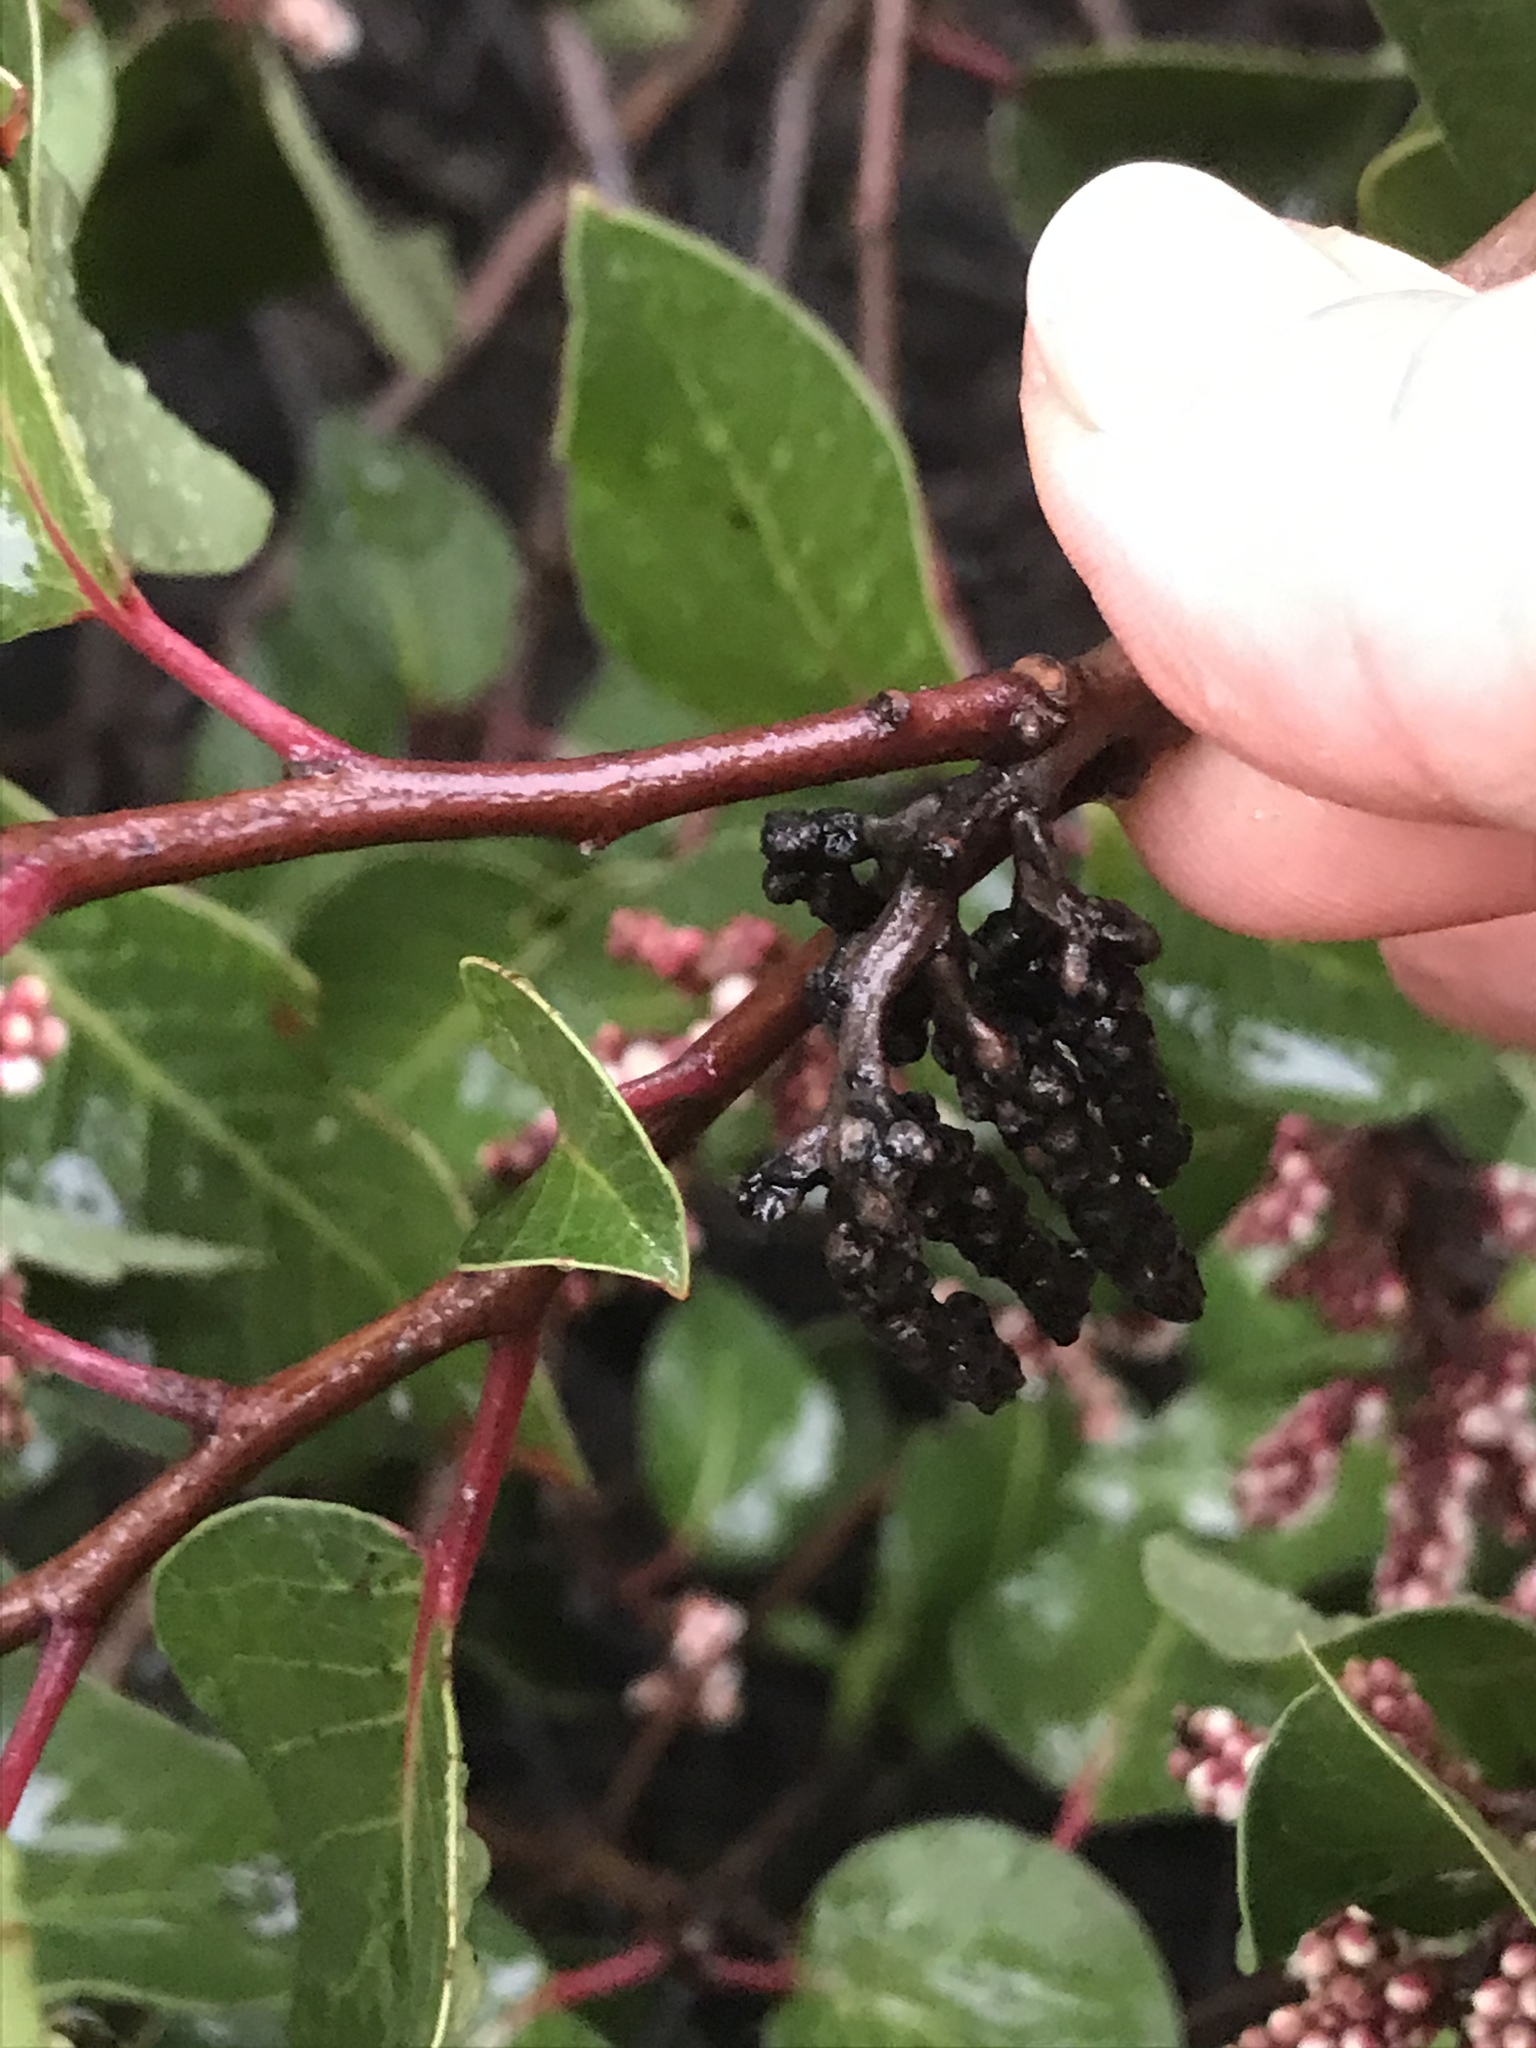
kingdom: Plantae
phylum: Tracheophyta
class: Magnoliopsida
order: Sapindales
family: Anacardiaceae
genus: Rhus
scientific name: Rhus ovata
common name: Sugar sumac
